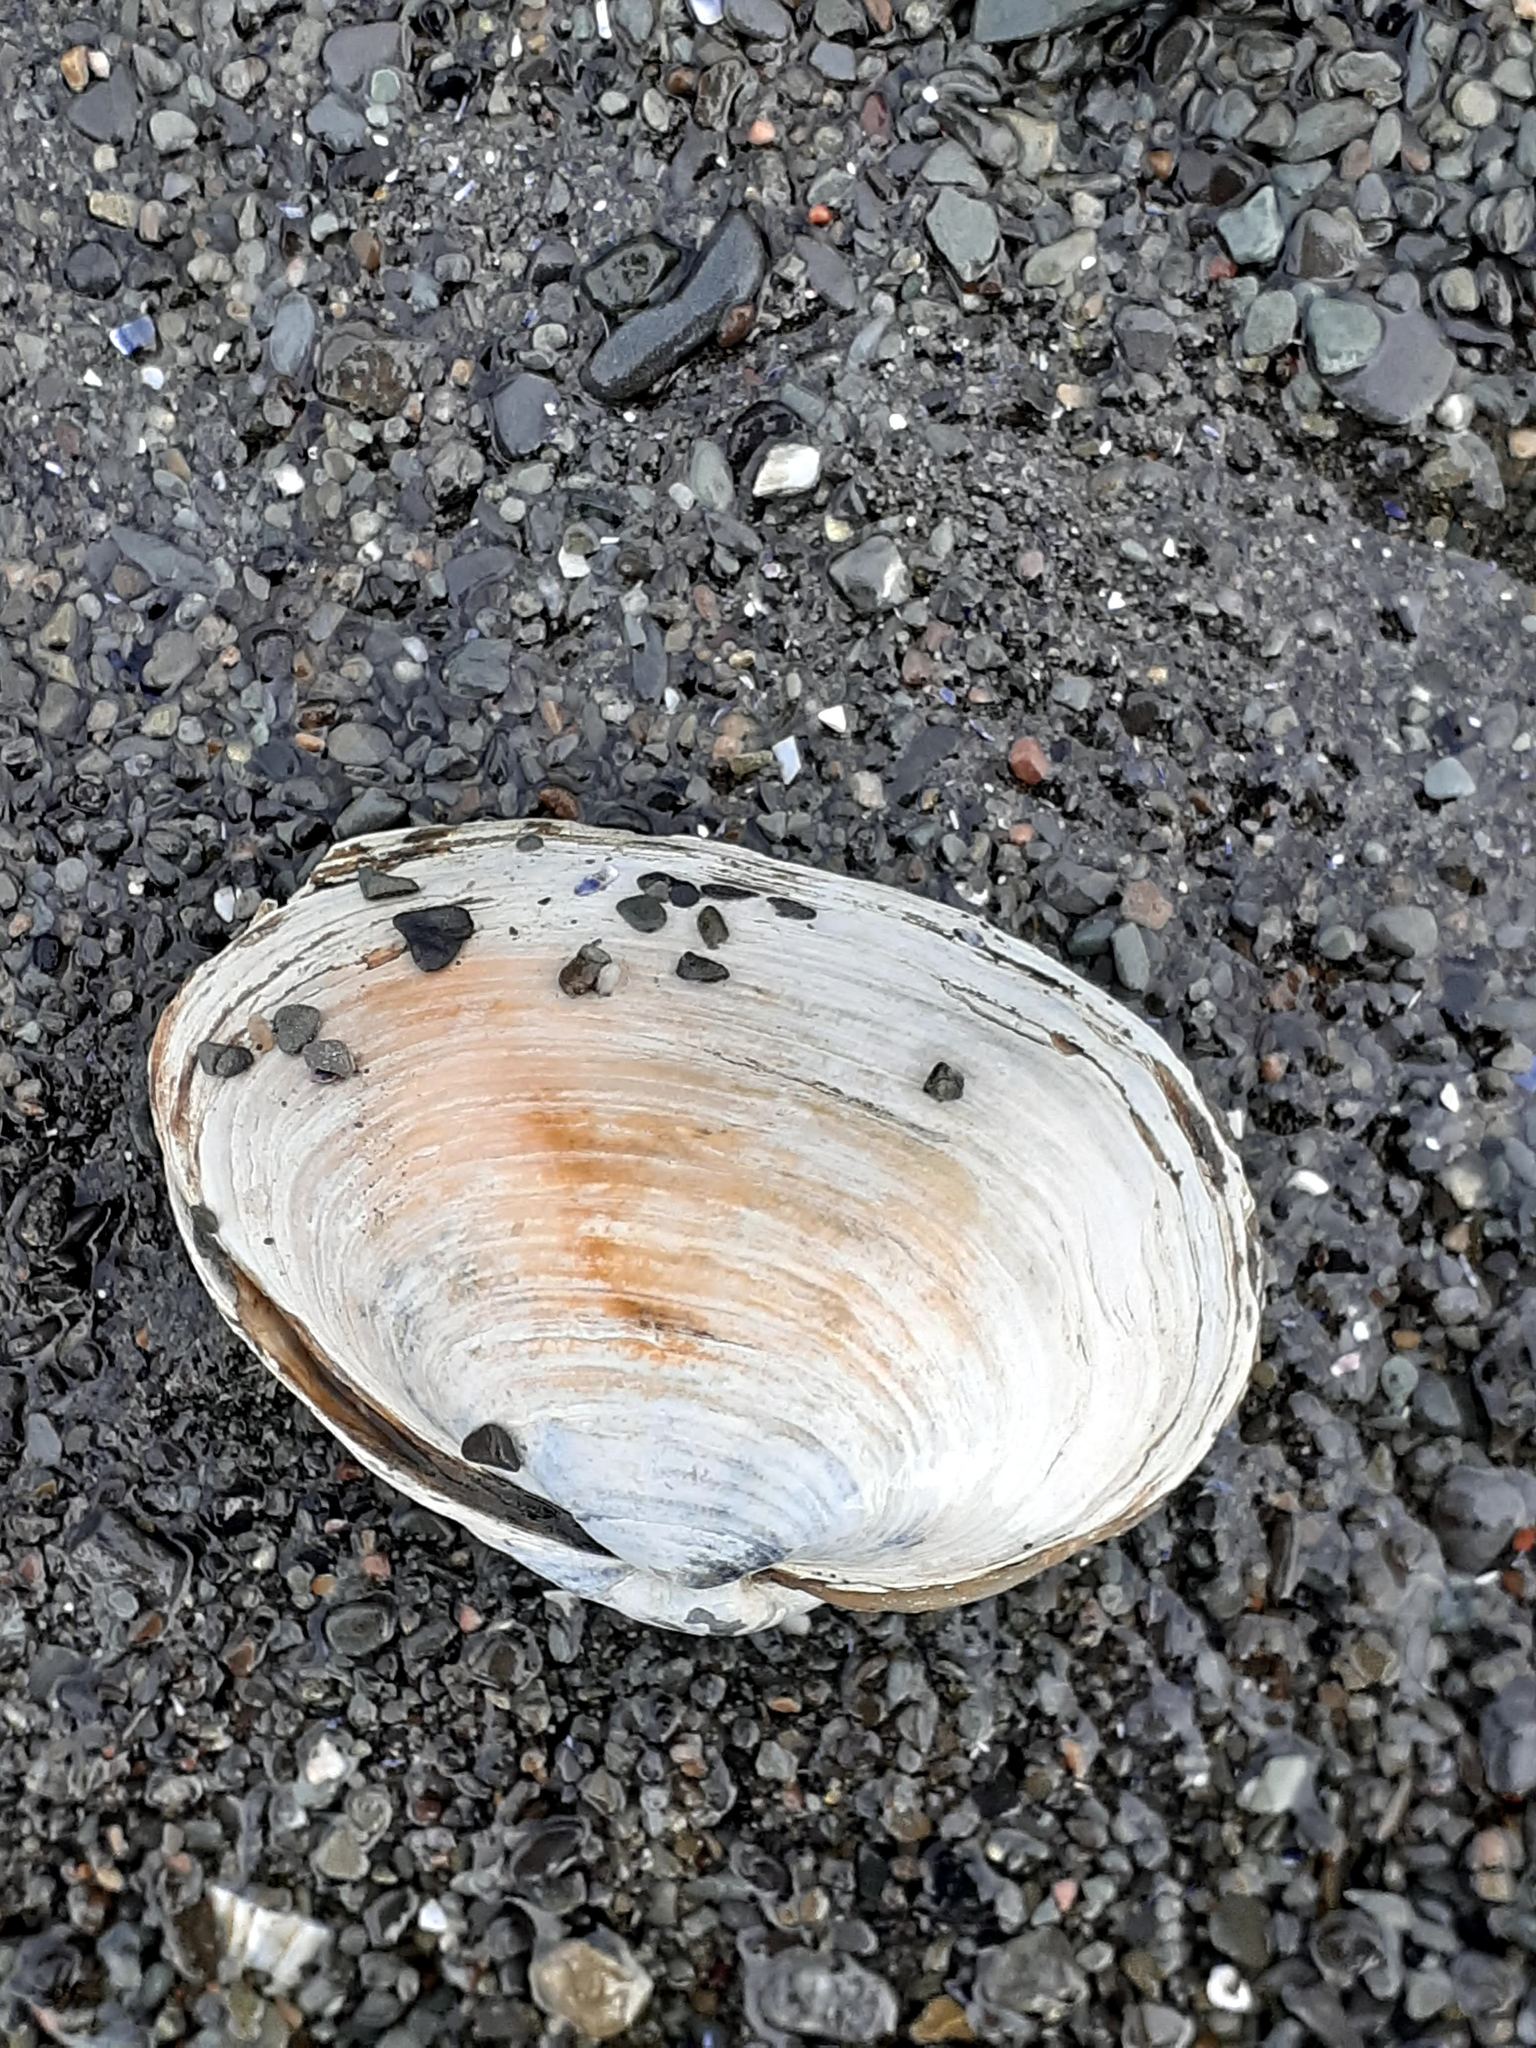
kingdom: Animalia
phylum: Mollusca
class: Bivalvia
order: Myida
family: Myidae
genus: Mya
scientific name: Mya arenaria
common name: Soft-shelled clam
